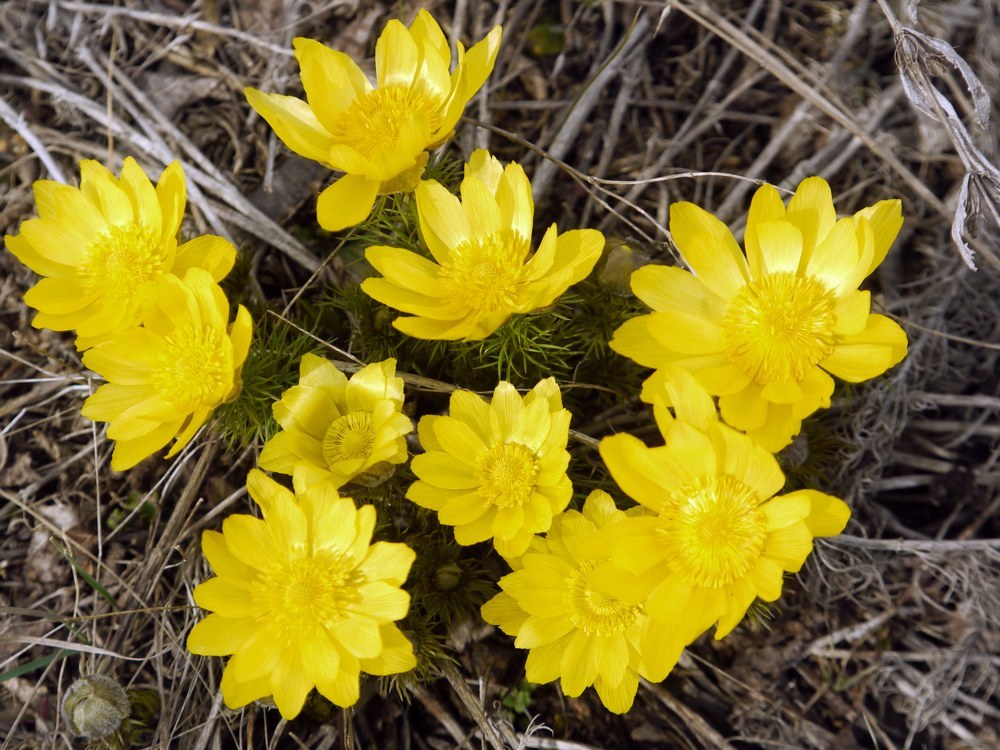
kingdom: Plantae
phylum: Tracheophyta
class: Magnoliopsida
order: Ranunculales
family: Ranunculaceae
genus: Adonis
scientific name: Adonis vernalis
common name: Yellow pheasants-eye
